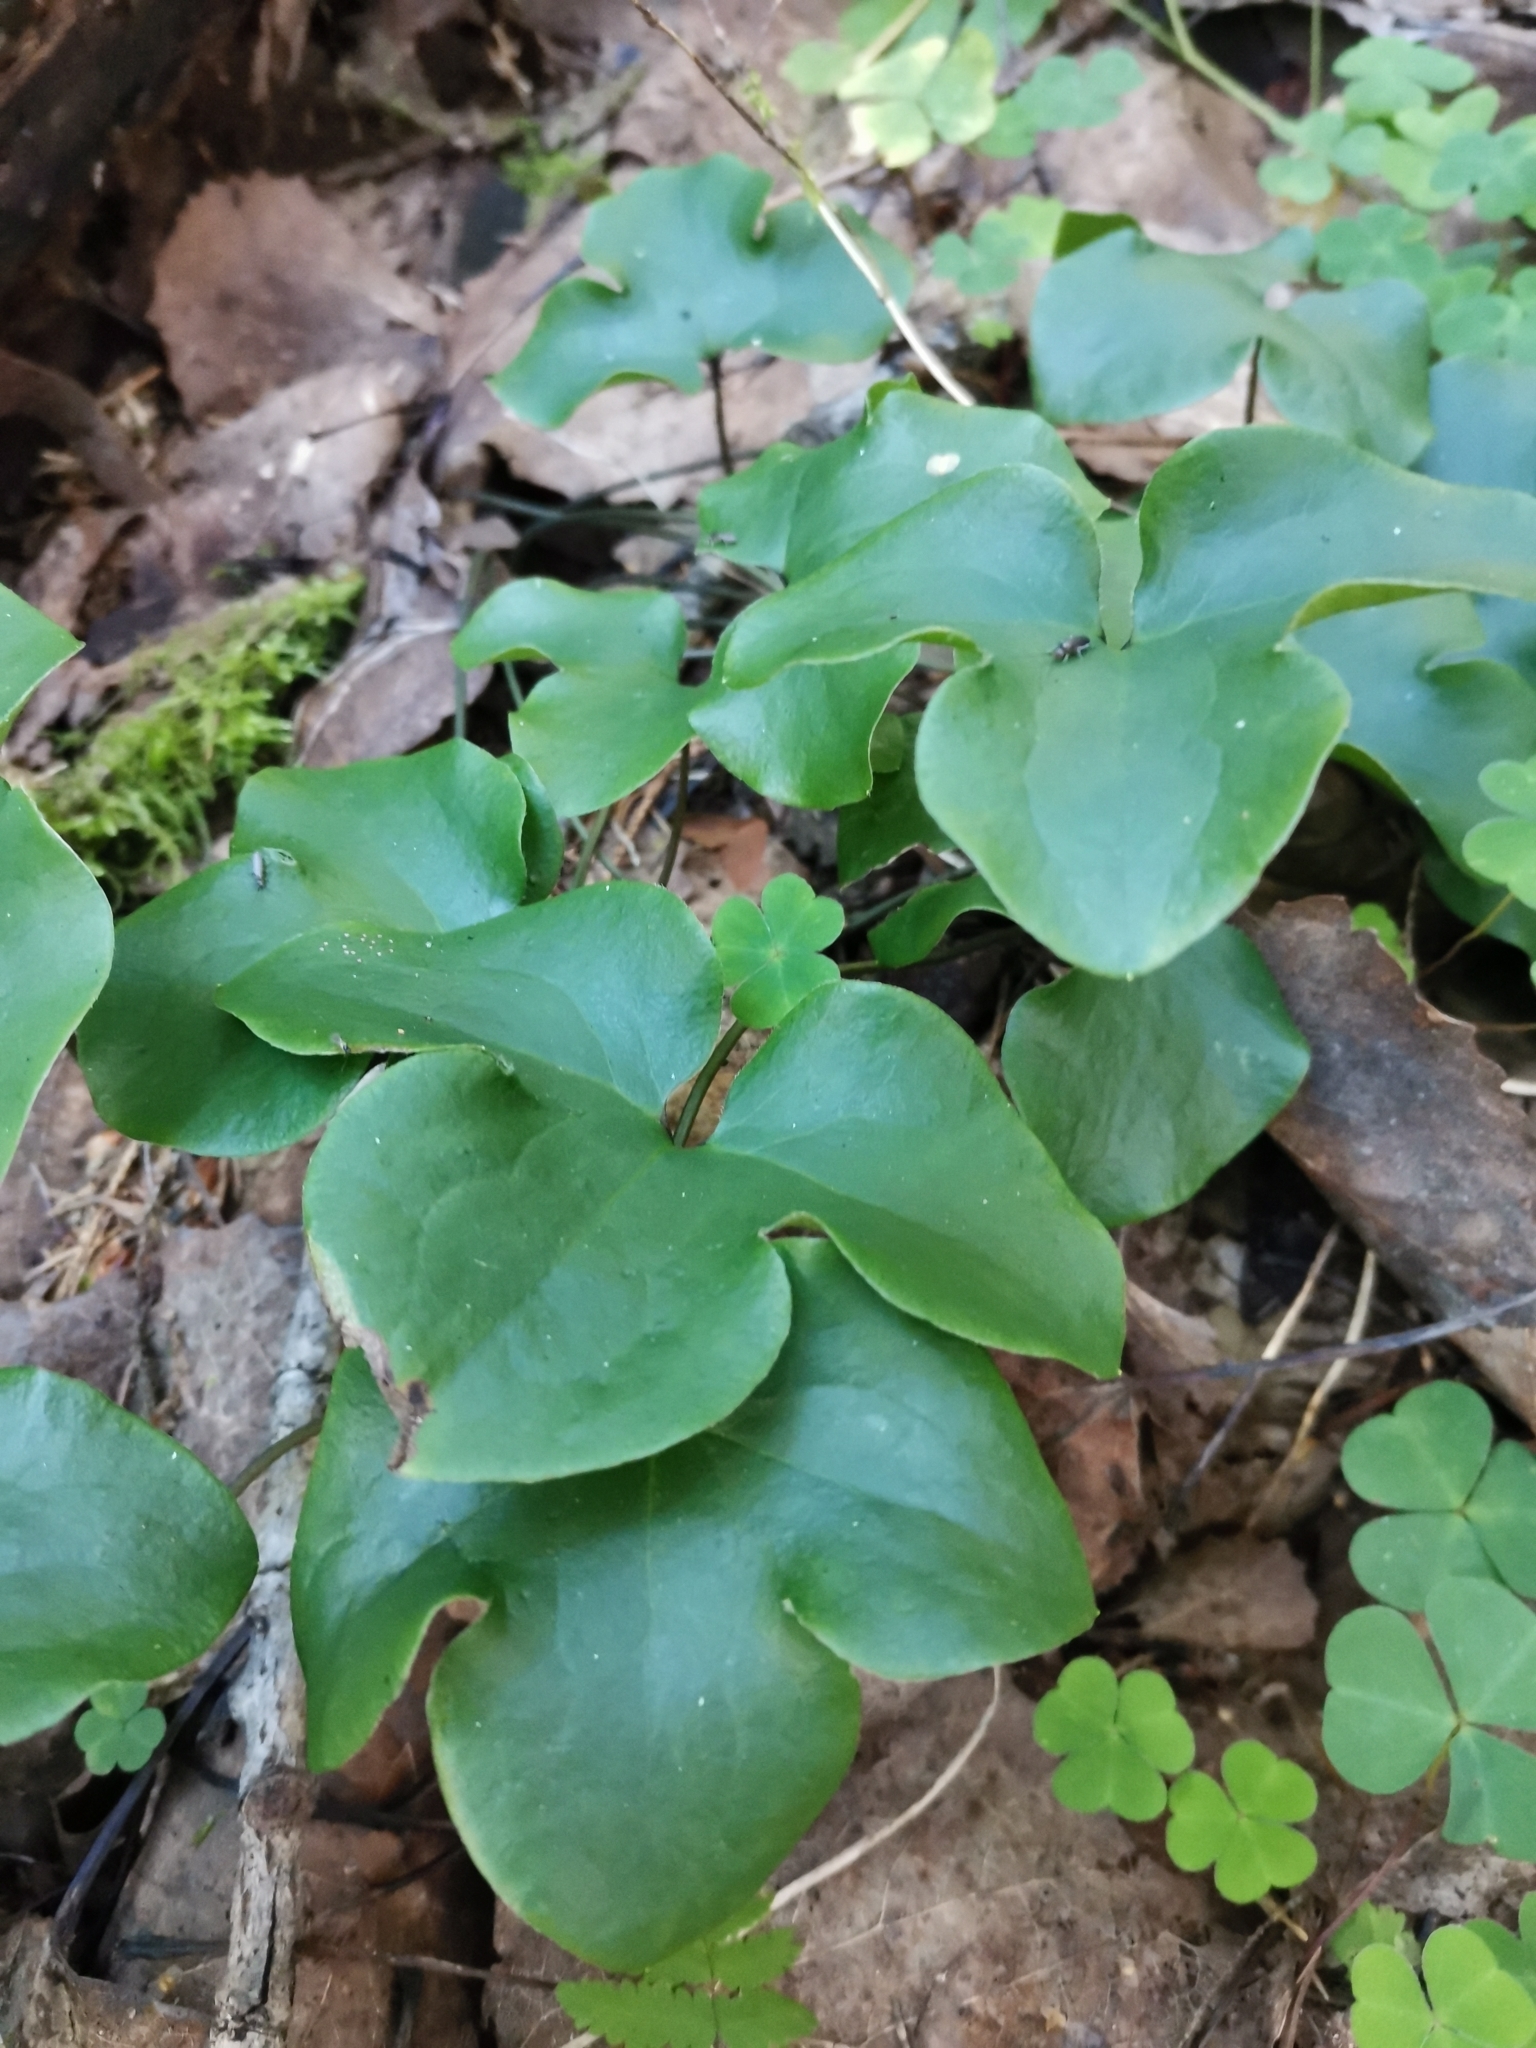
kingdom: Plantae
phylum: Tracheophyta
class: Magnoliopsida
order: Ranunculales
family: Ranunculaceae
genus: Hepatica
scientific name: Hepatica nobilis
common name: Liverleaf
